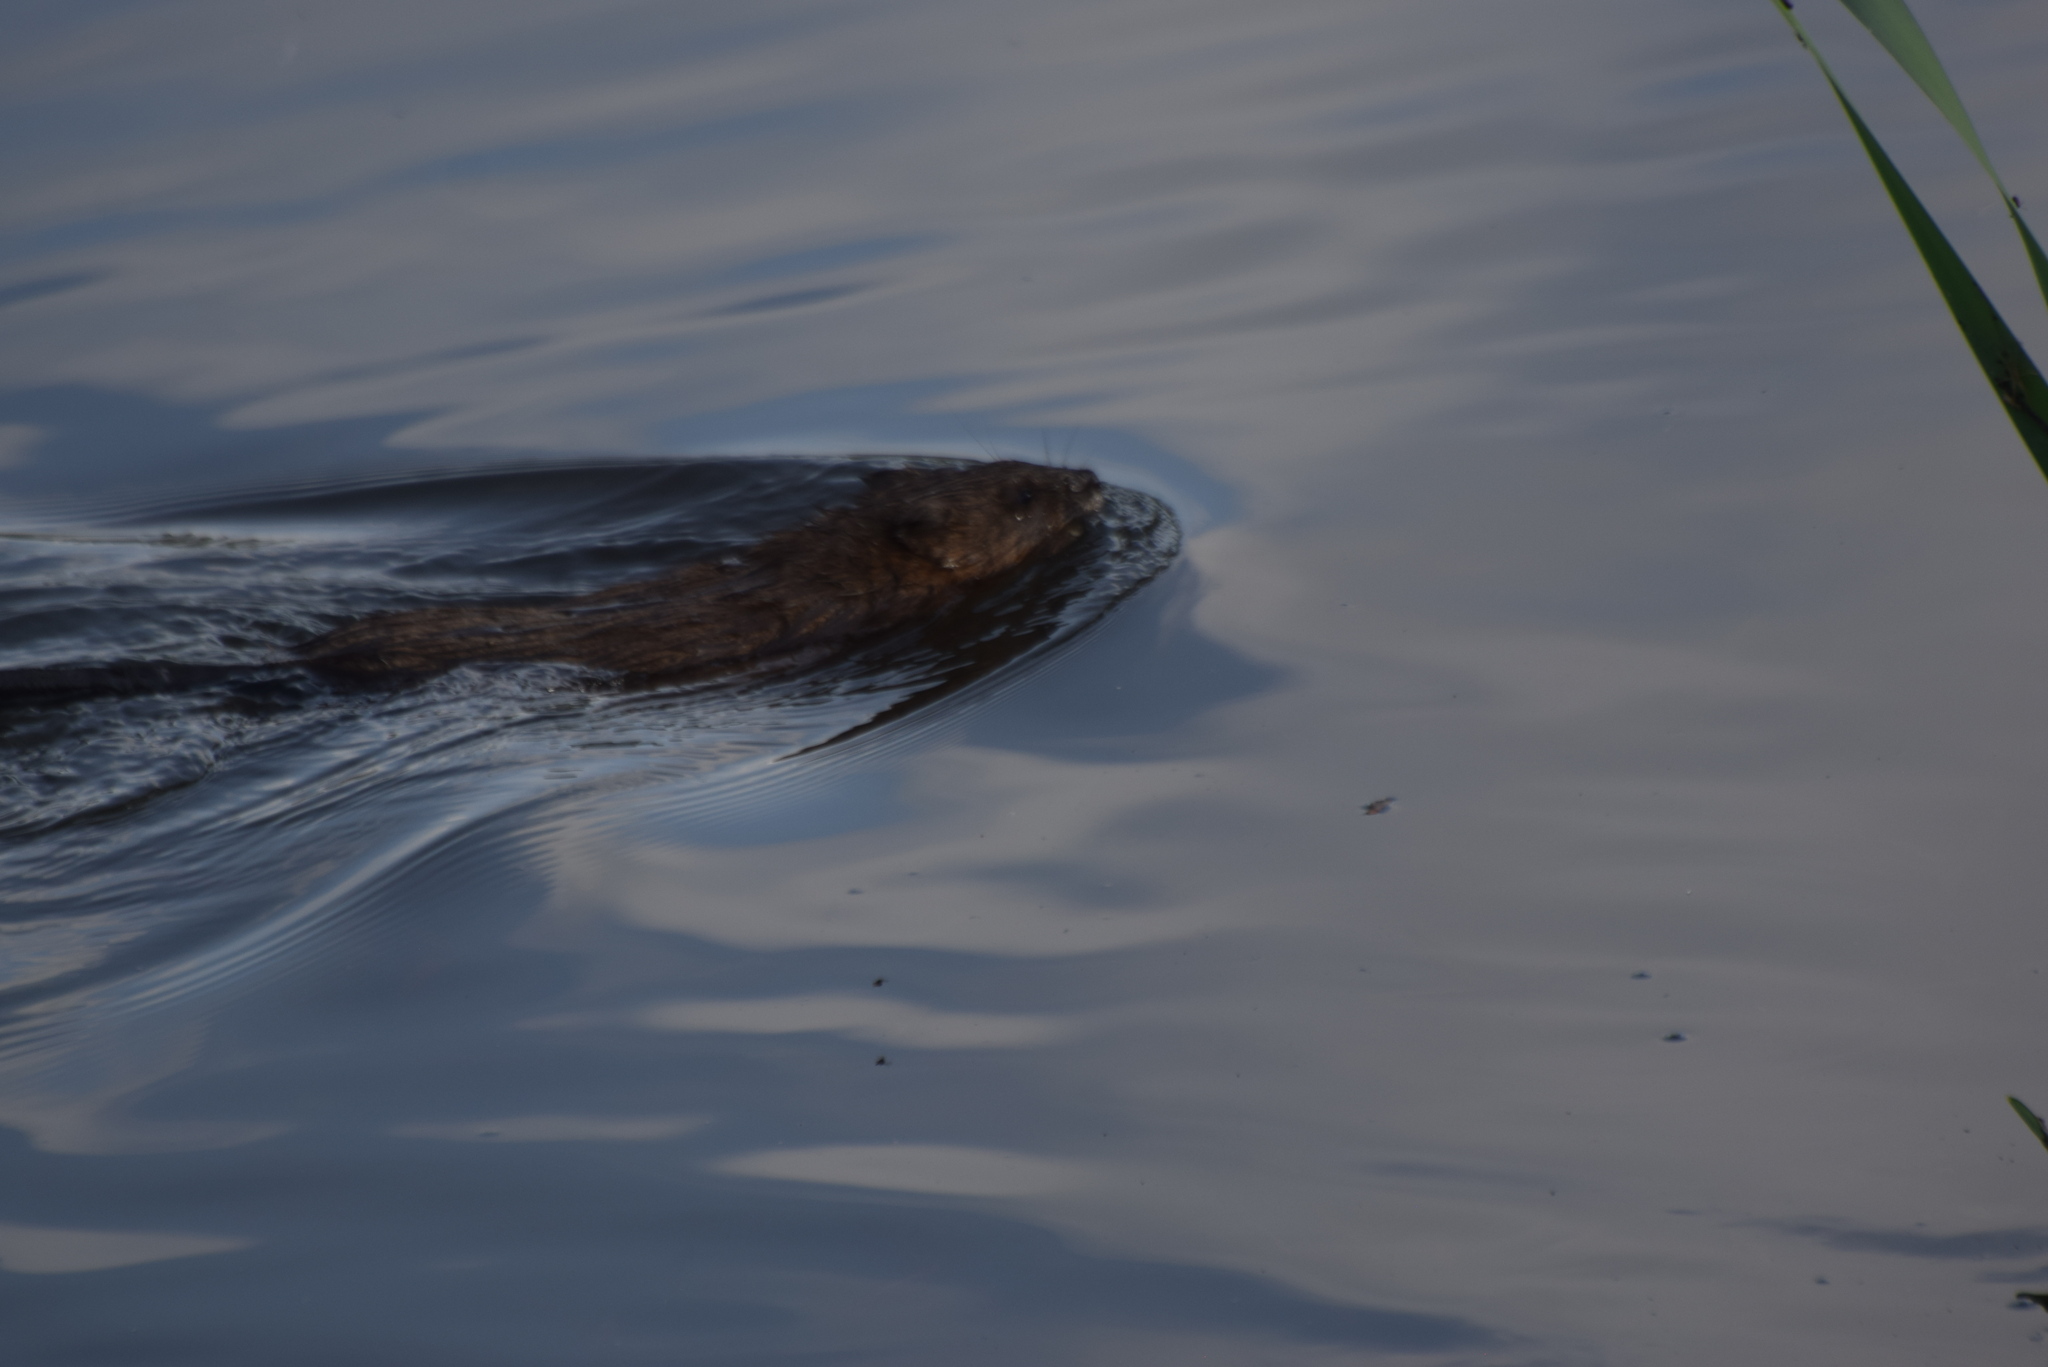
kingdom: Animalia
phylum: Chordata
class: Mammalia
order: Rodentia
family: Cricetidae
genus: Ondatra
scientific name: Ondatra zibethicus
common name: Muskrat
